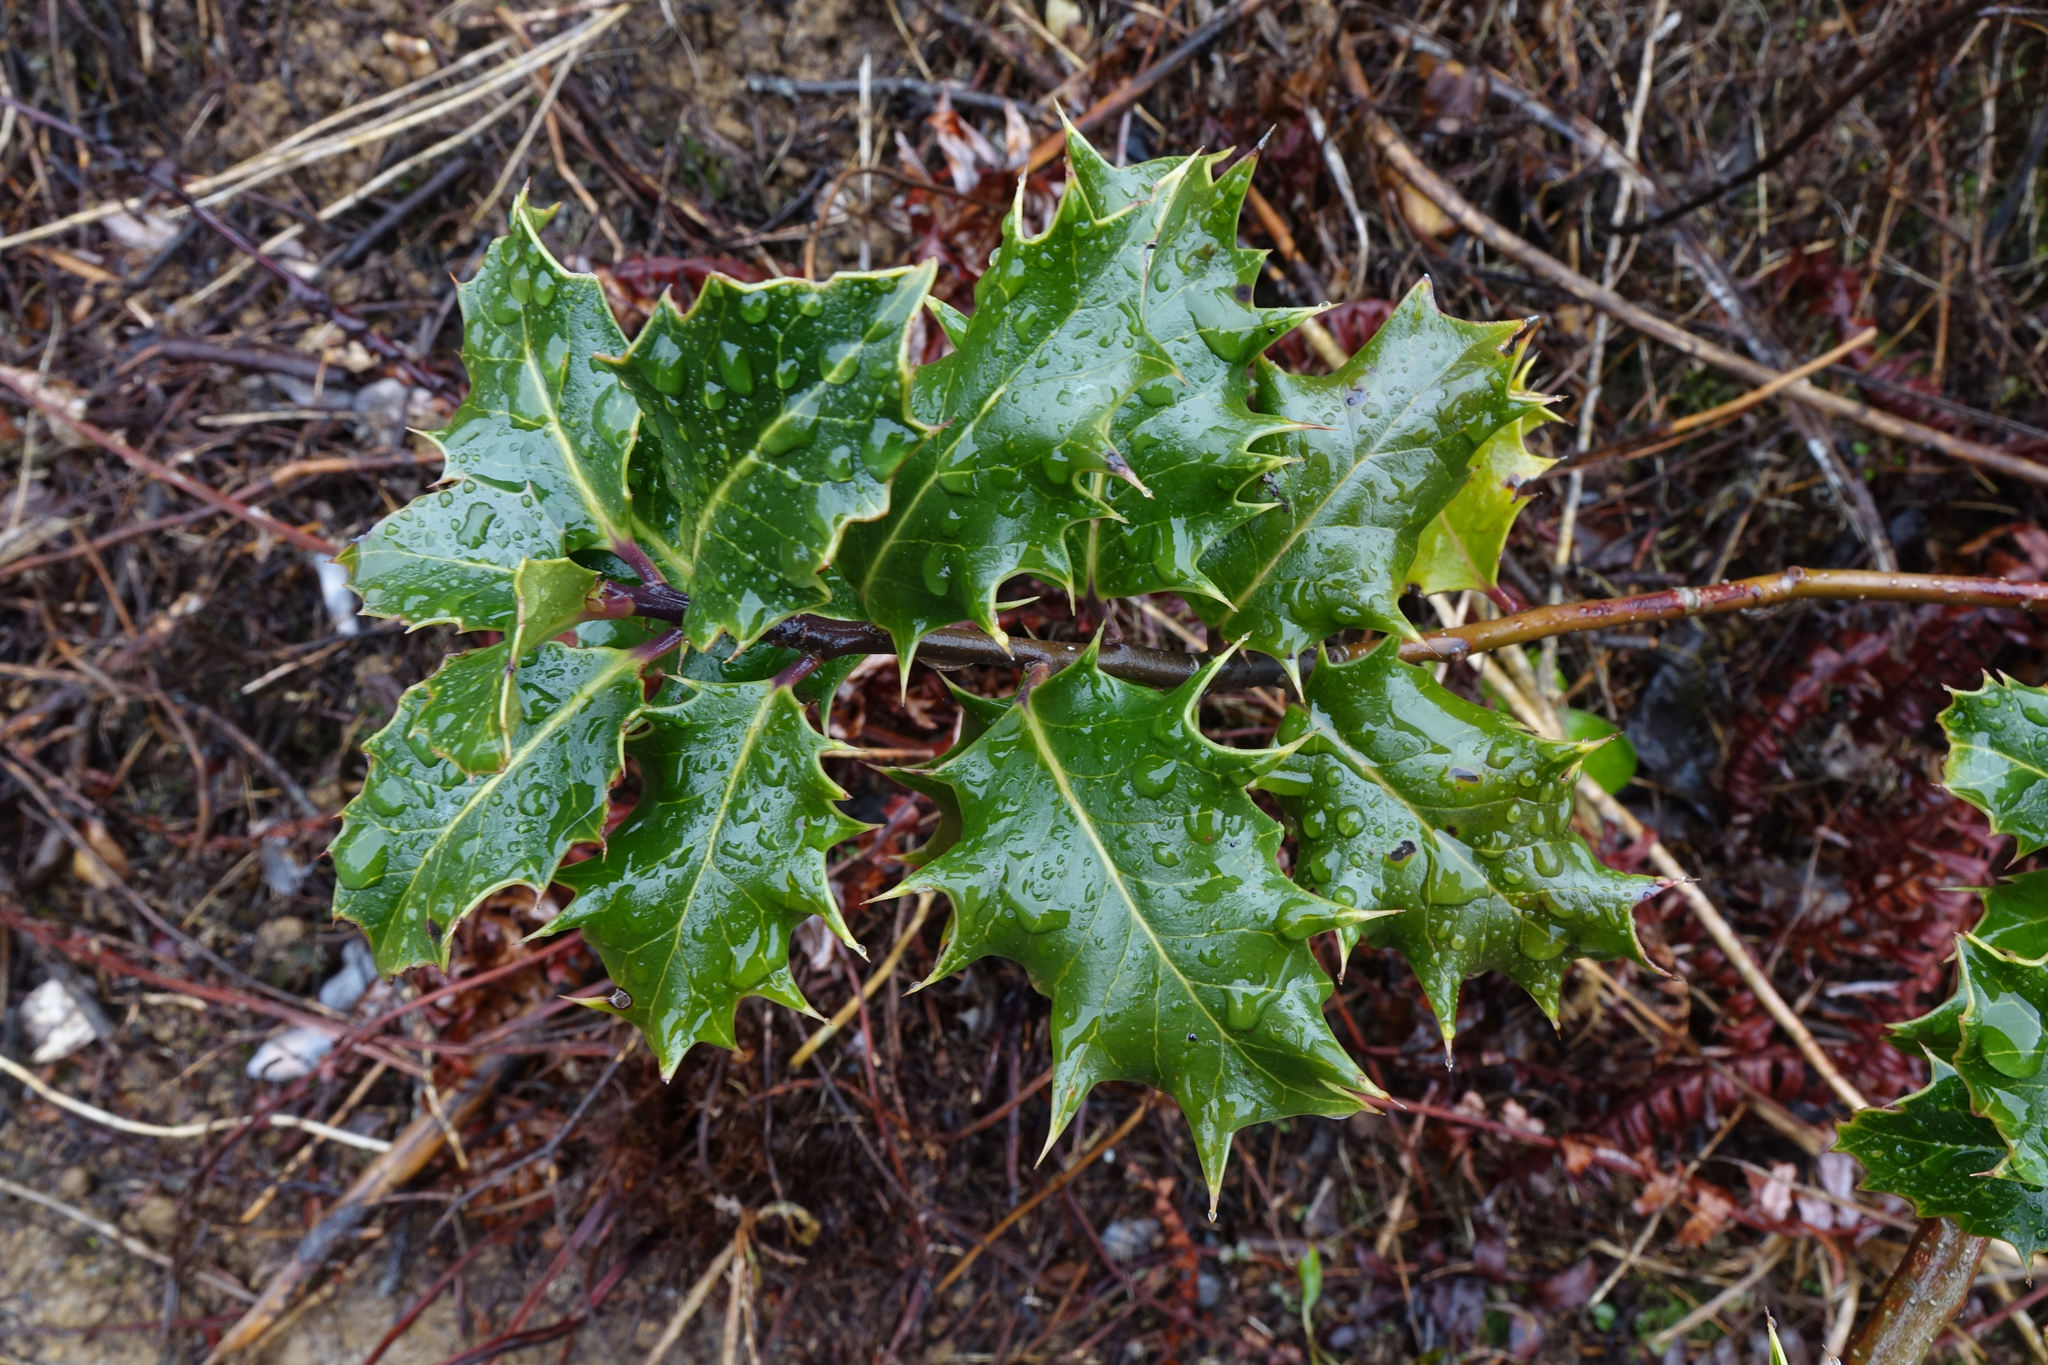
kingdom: Plantae
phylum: Tracheophyta
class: Magnoliopsida
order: Aquifoliales
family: Aquifoliaceae
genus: Ilex
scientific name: Ilex aquifolium
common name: English holly
